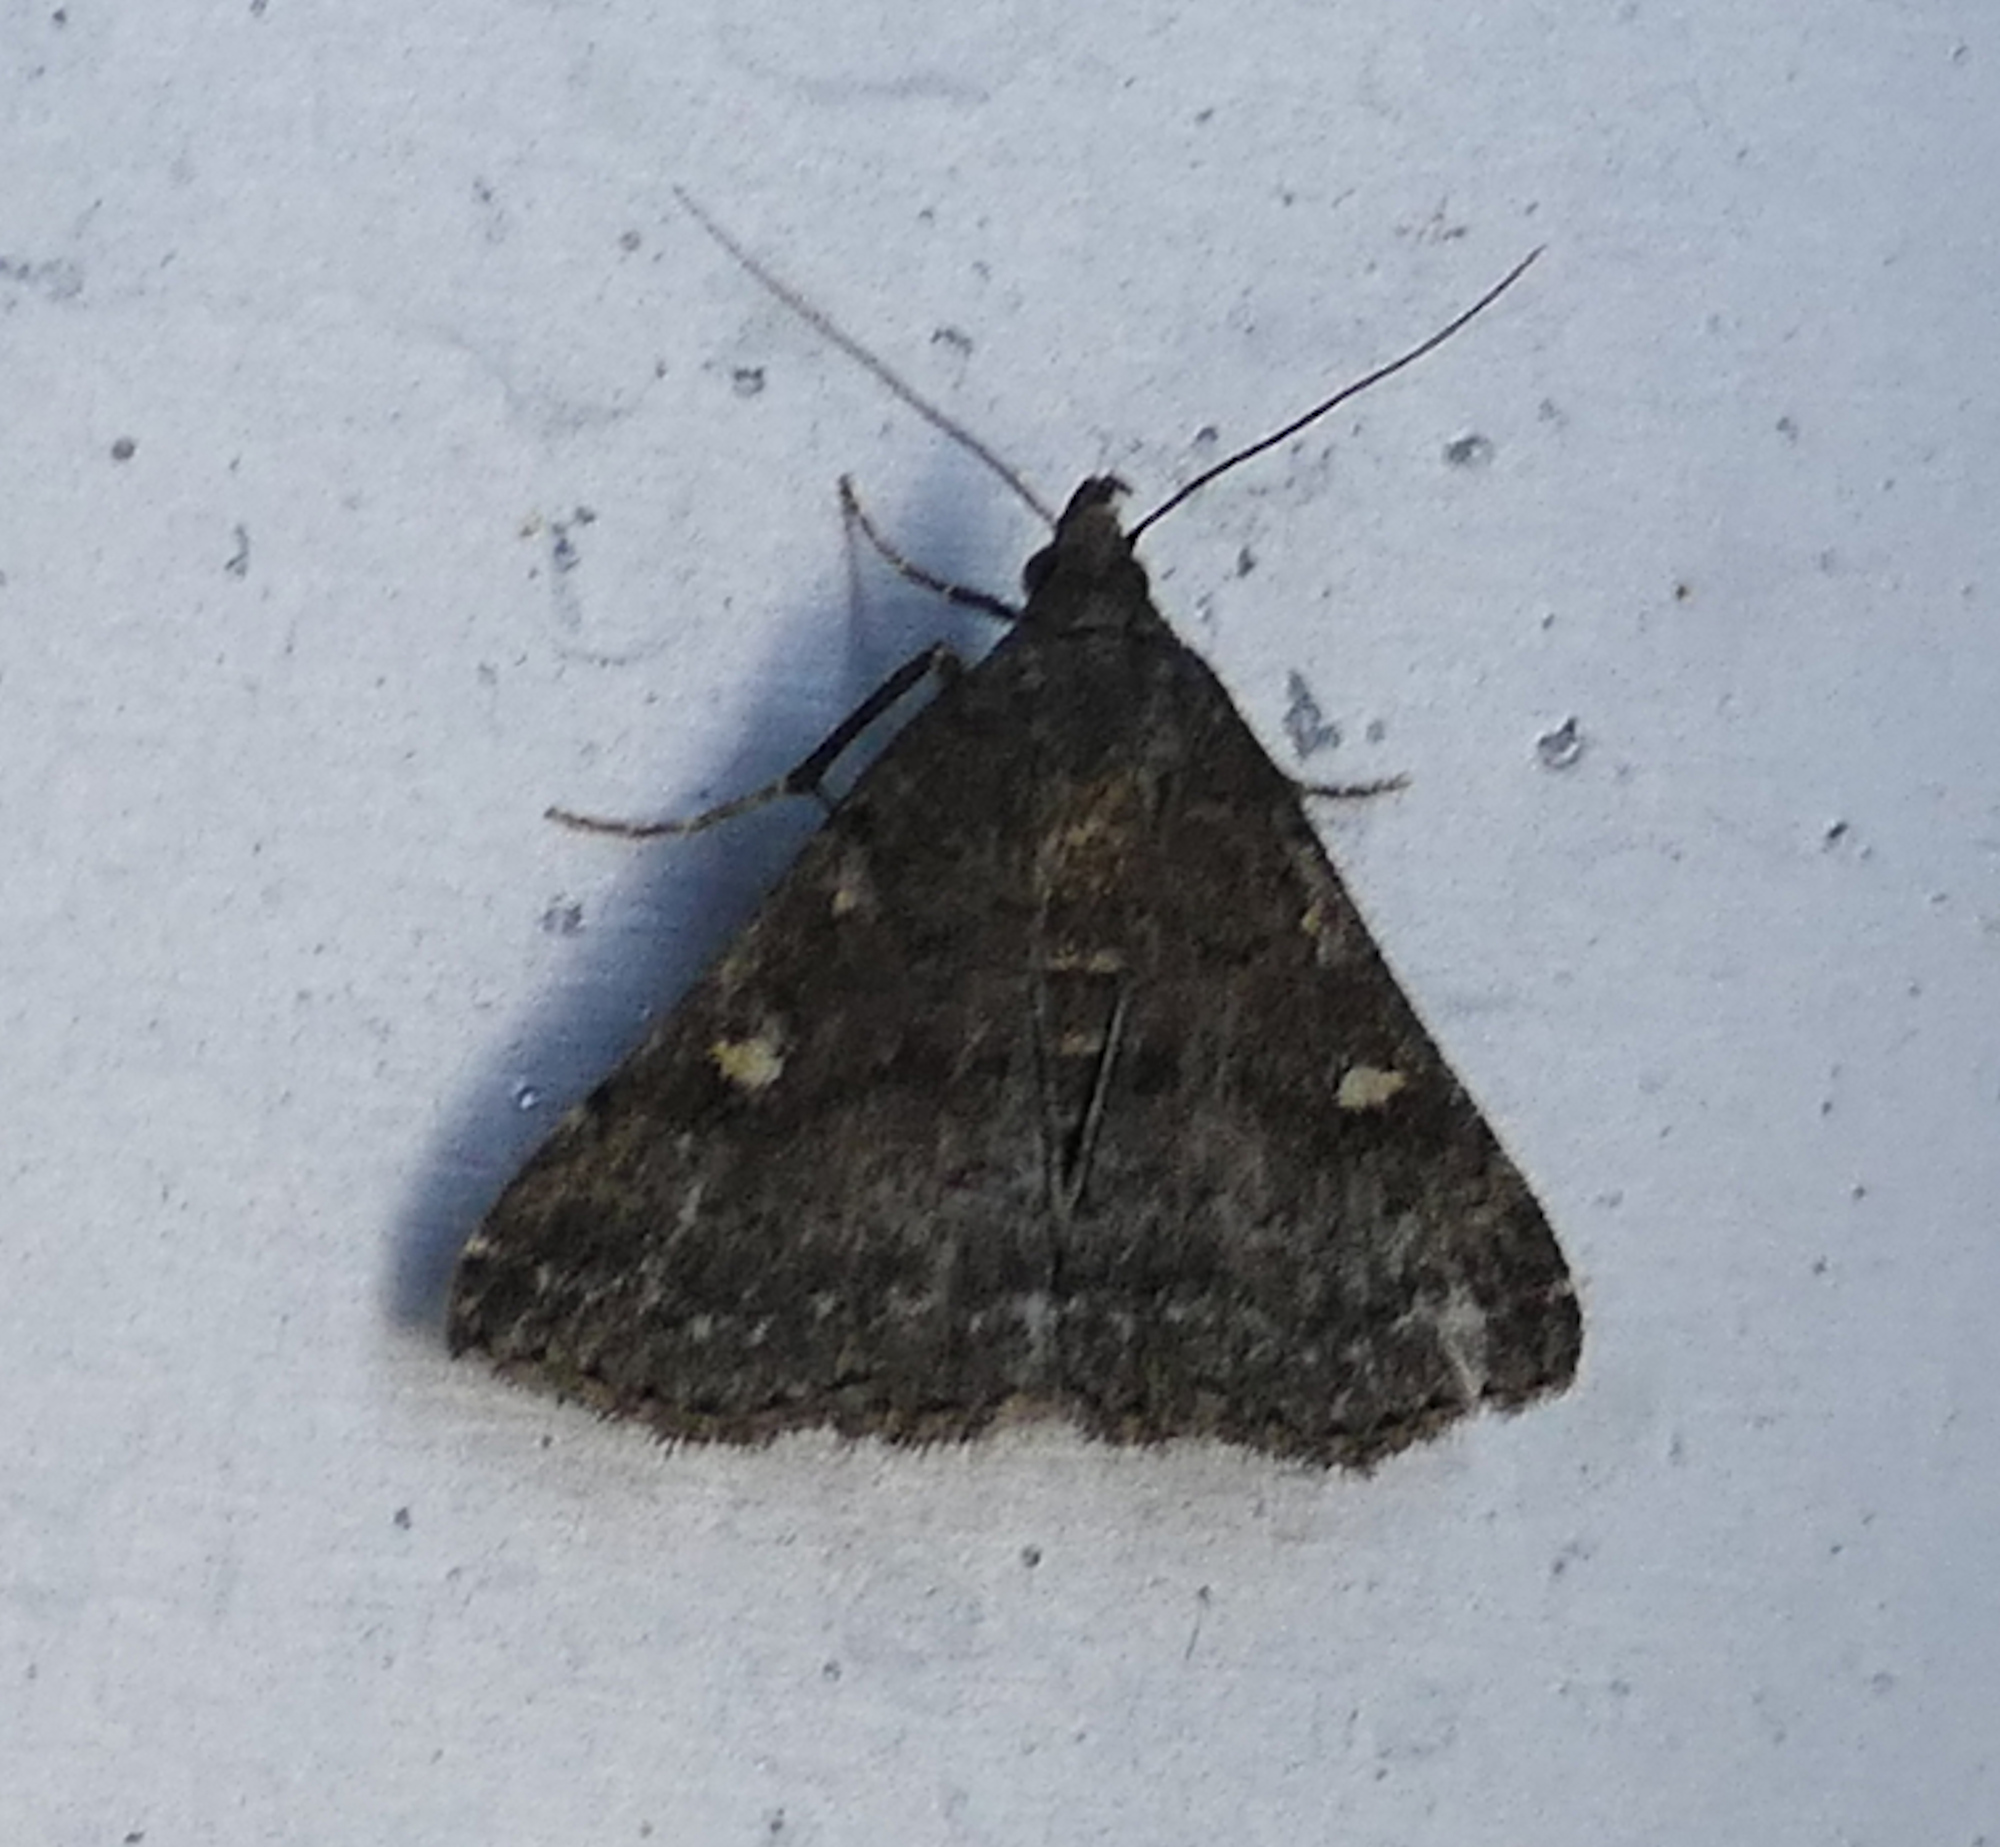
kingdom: Animalia
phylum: Arthropoda
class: Insecta
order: Lepidoptera
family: Erebidae
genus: Tetanolita
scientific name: Tetanolita mynesalis
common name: Smoky tetanolita moth
